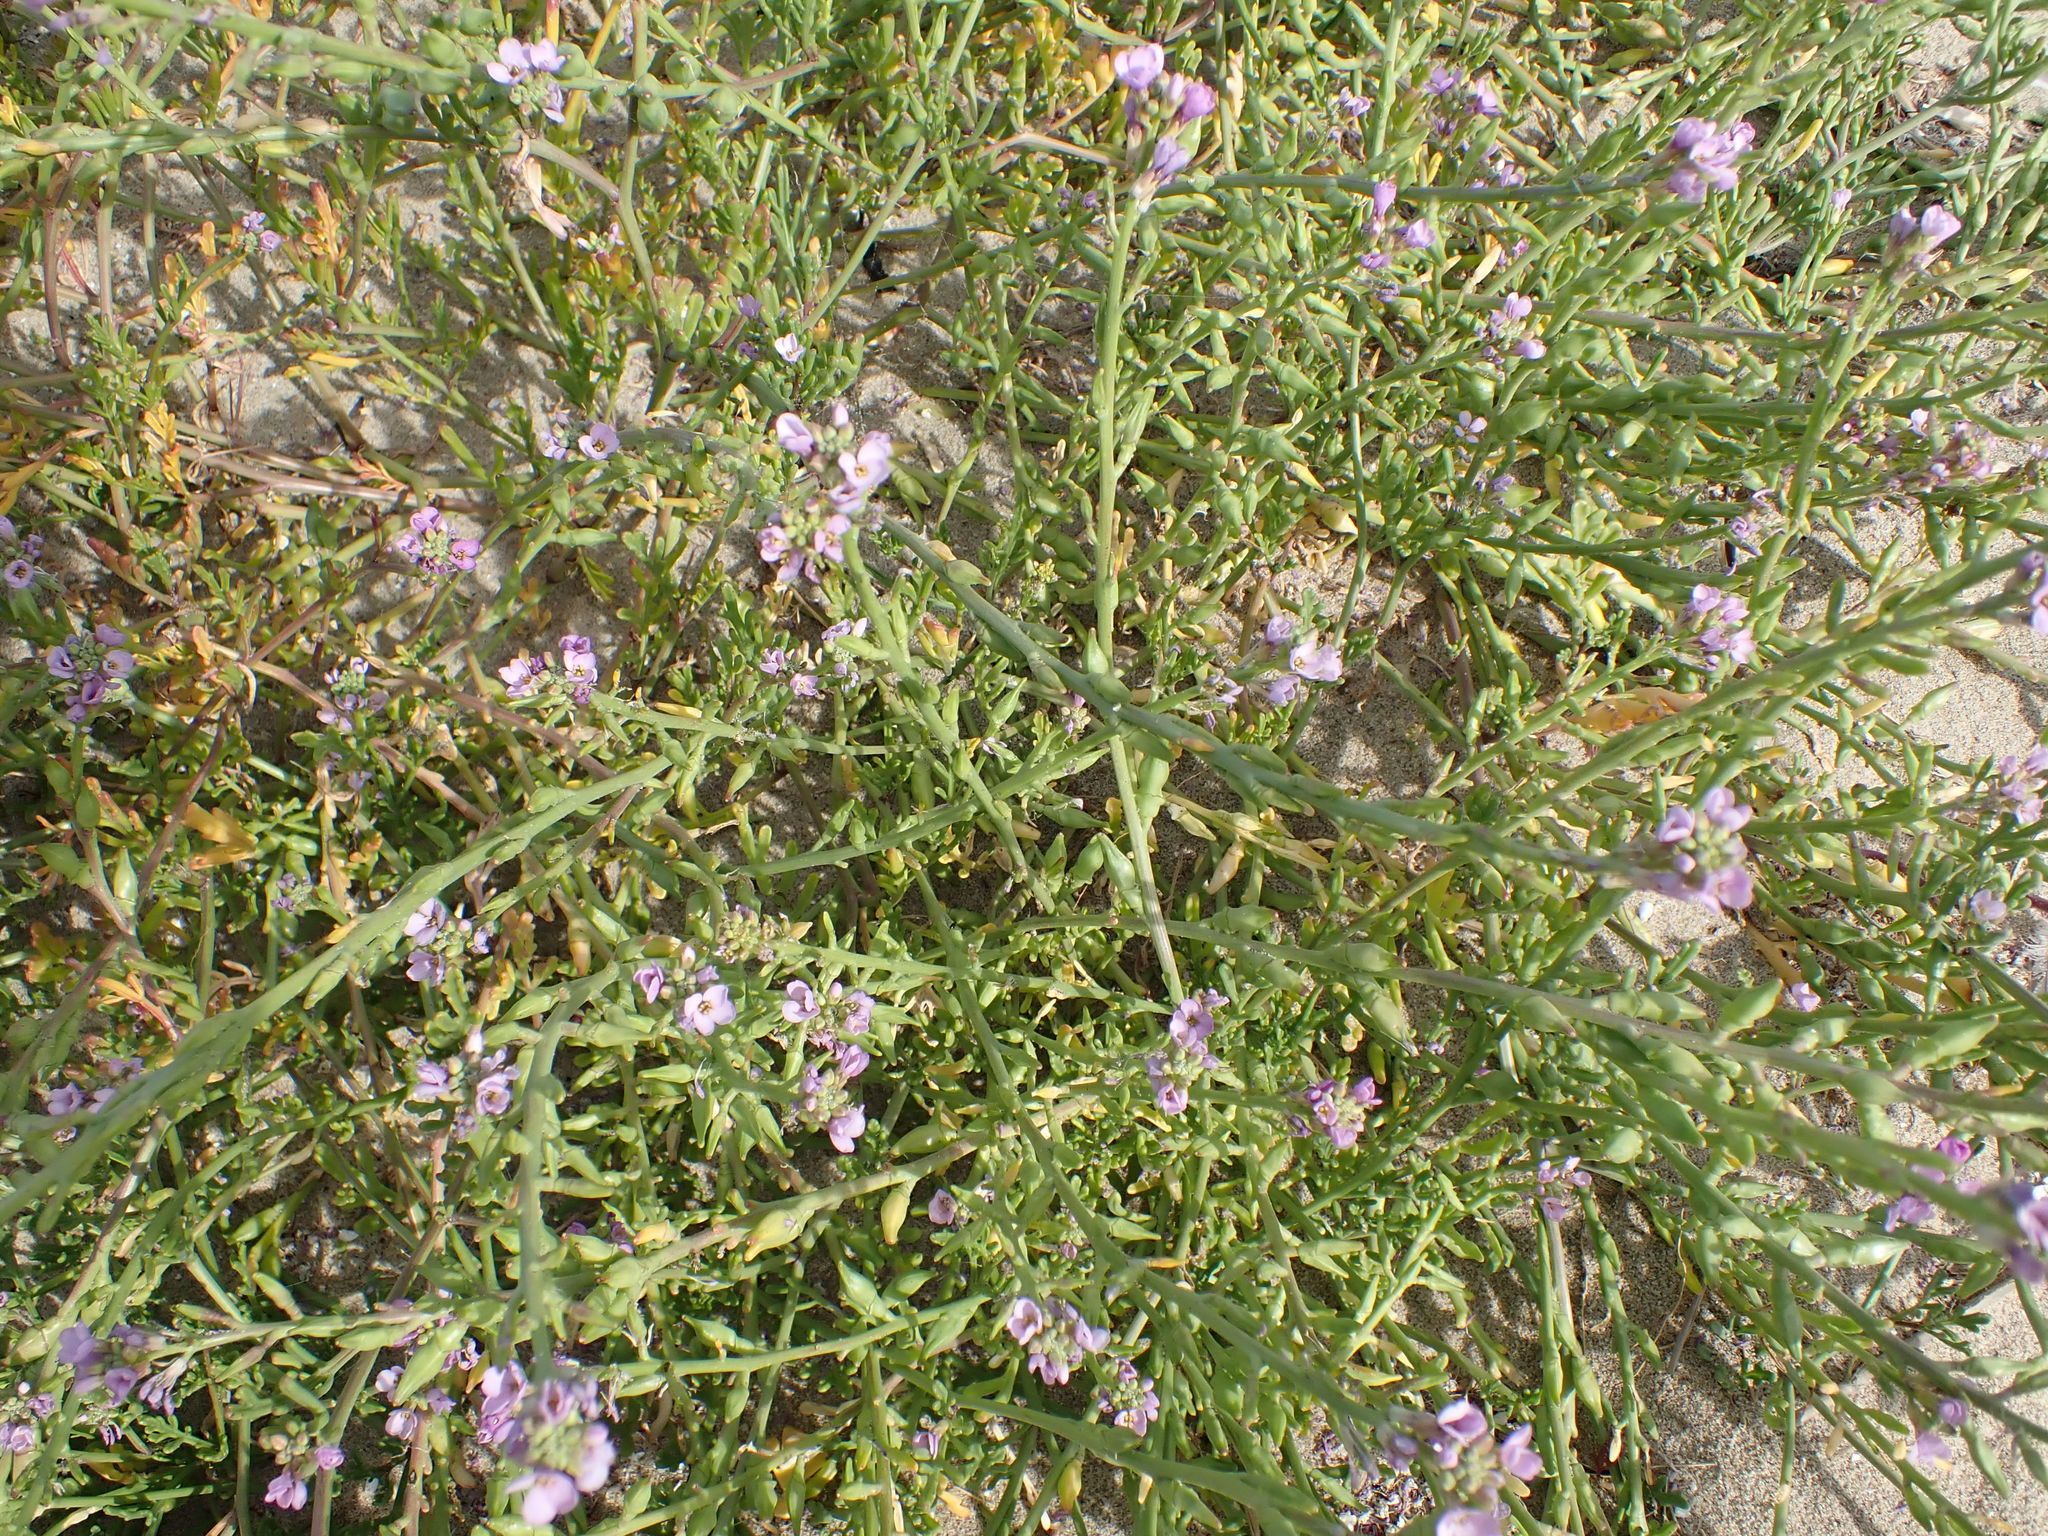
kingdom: Plantae
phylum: Tracheophyta
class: Magnoliopsida
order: Brassicales
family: Brassicaceae
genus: Cakile
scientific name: Cakile maritima
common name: Sea rocket
